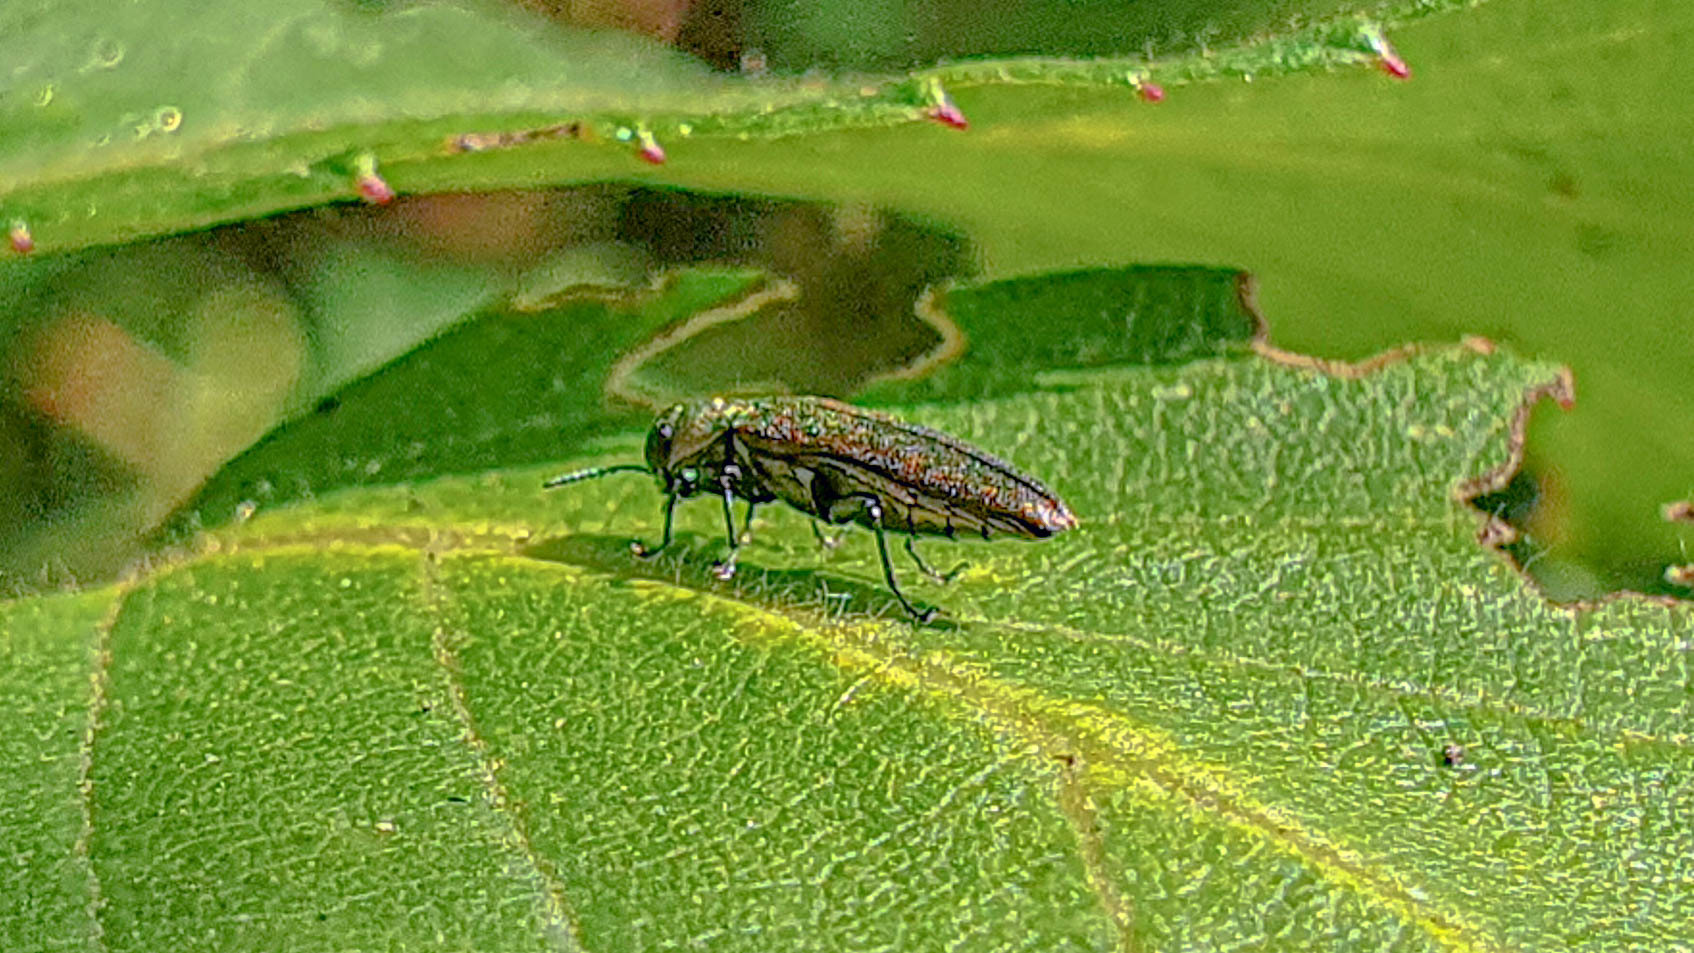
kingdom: Animalia
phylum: Arthropoda
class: Insecta
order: Coleoptera
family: Buprestidae
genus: Agrilus
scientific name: Agrilus cuprescens
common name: Rose stem girdler
